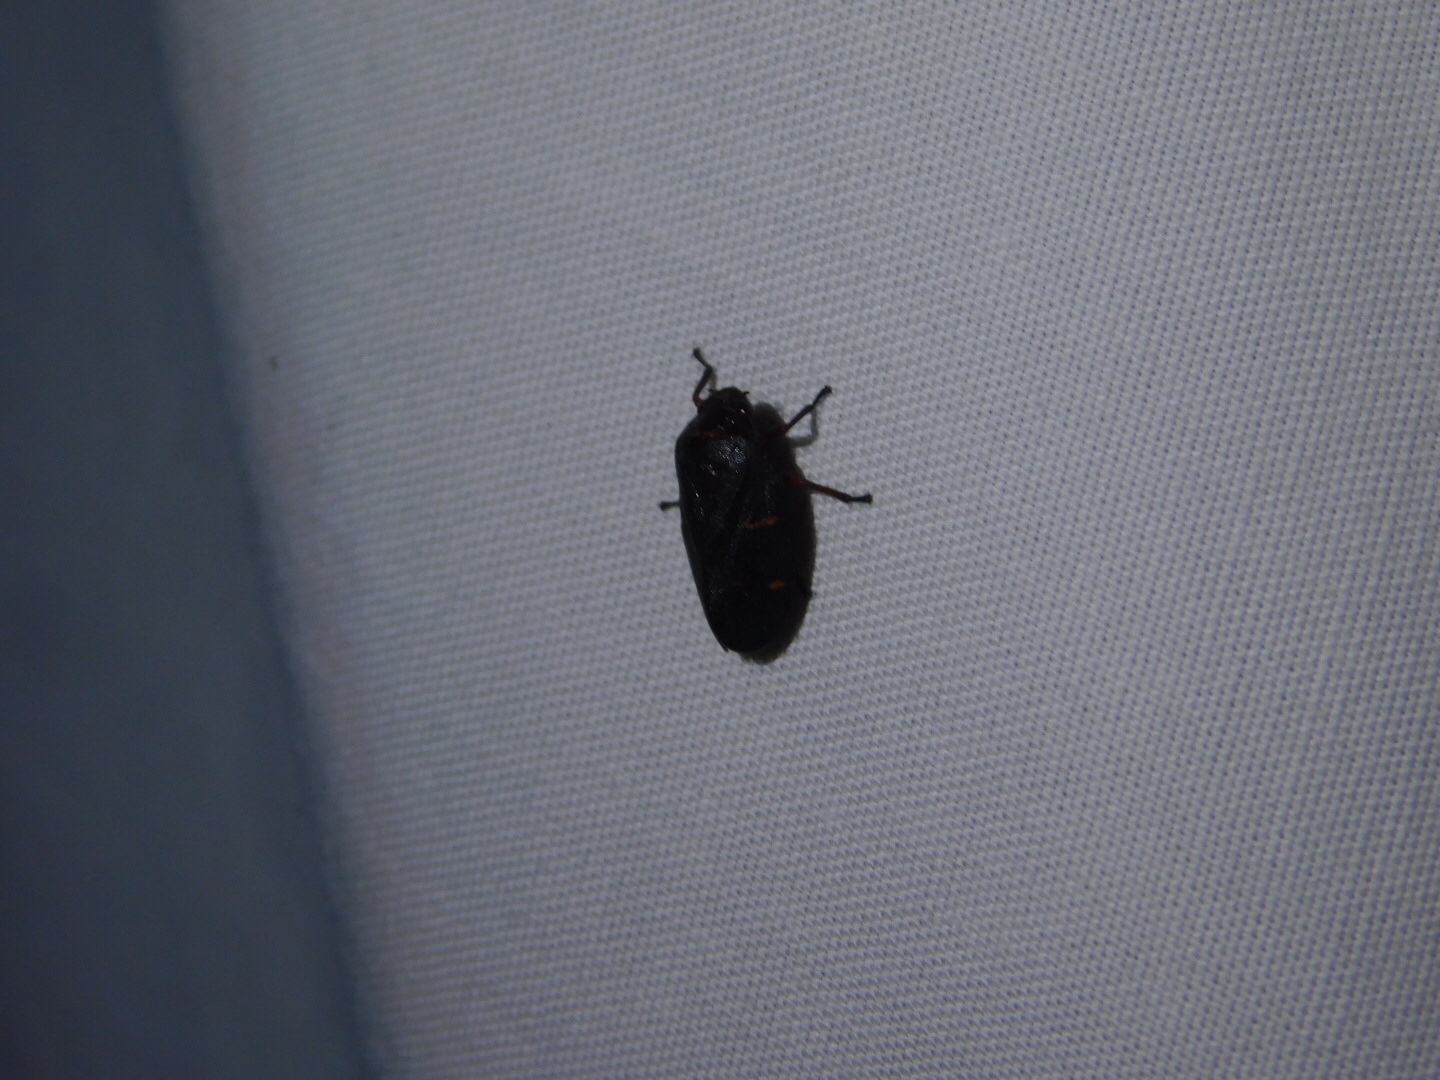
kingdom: Animalia
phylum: Arthropoda
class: Insecta
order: Hemiptera
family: Cercopidae
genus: Prosapia
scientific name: Prosapia bicincta
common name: Twolined spittlebug
